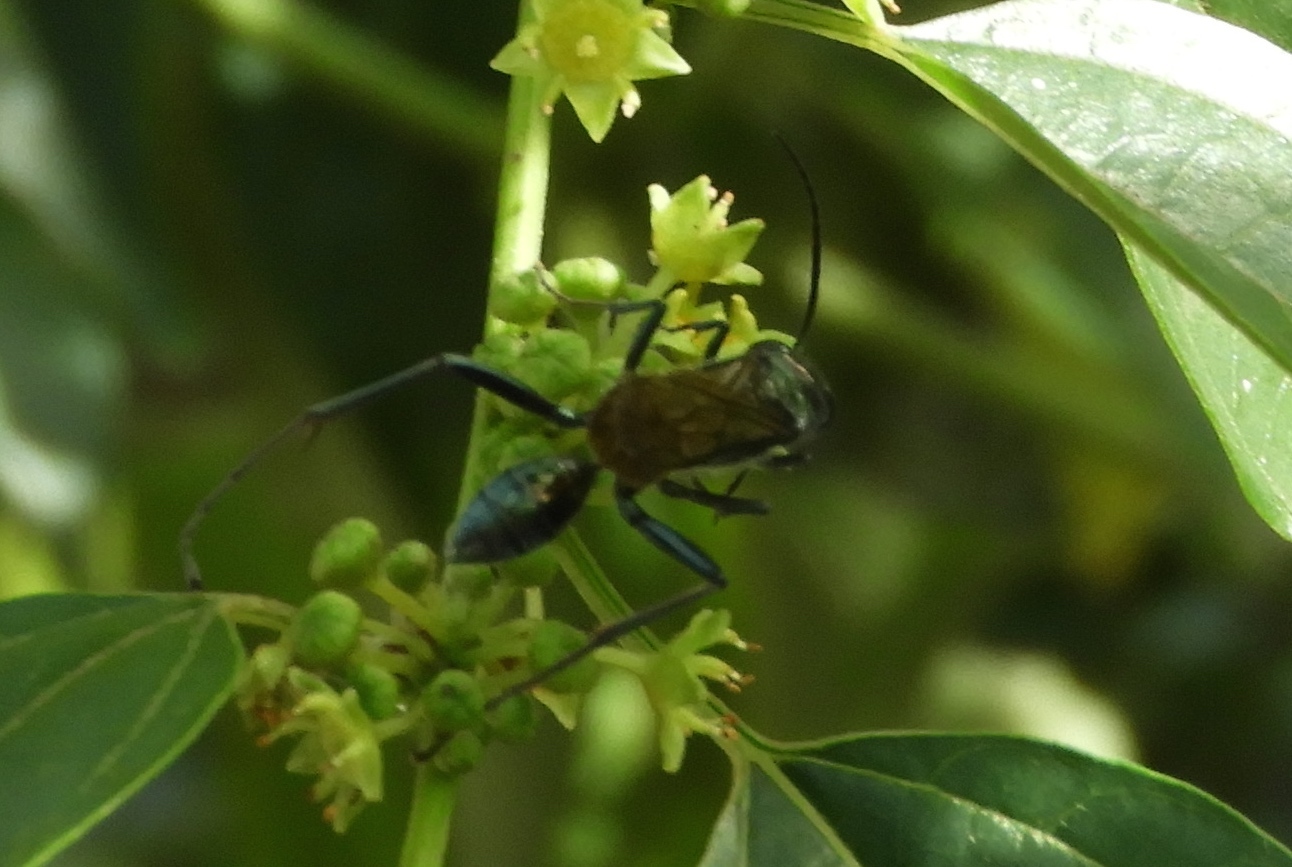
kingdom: Animalia
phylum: Arthropoda
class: Insecta
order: Hymenoptera
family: Sphecidae
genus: Chalybion
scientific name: Chalybion
